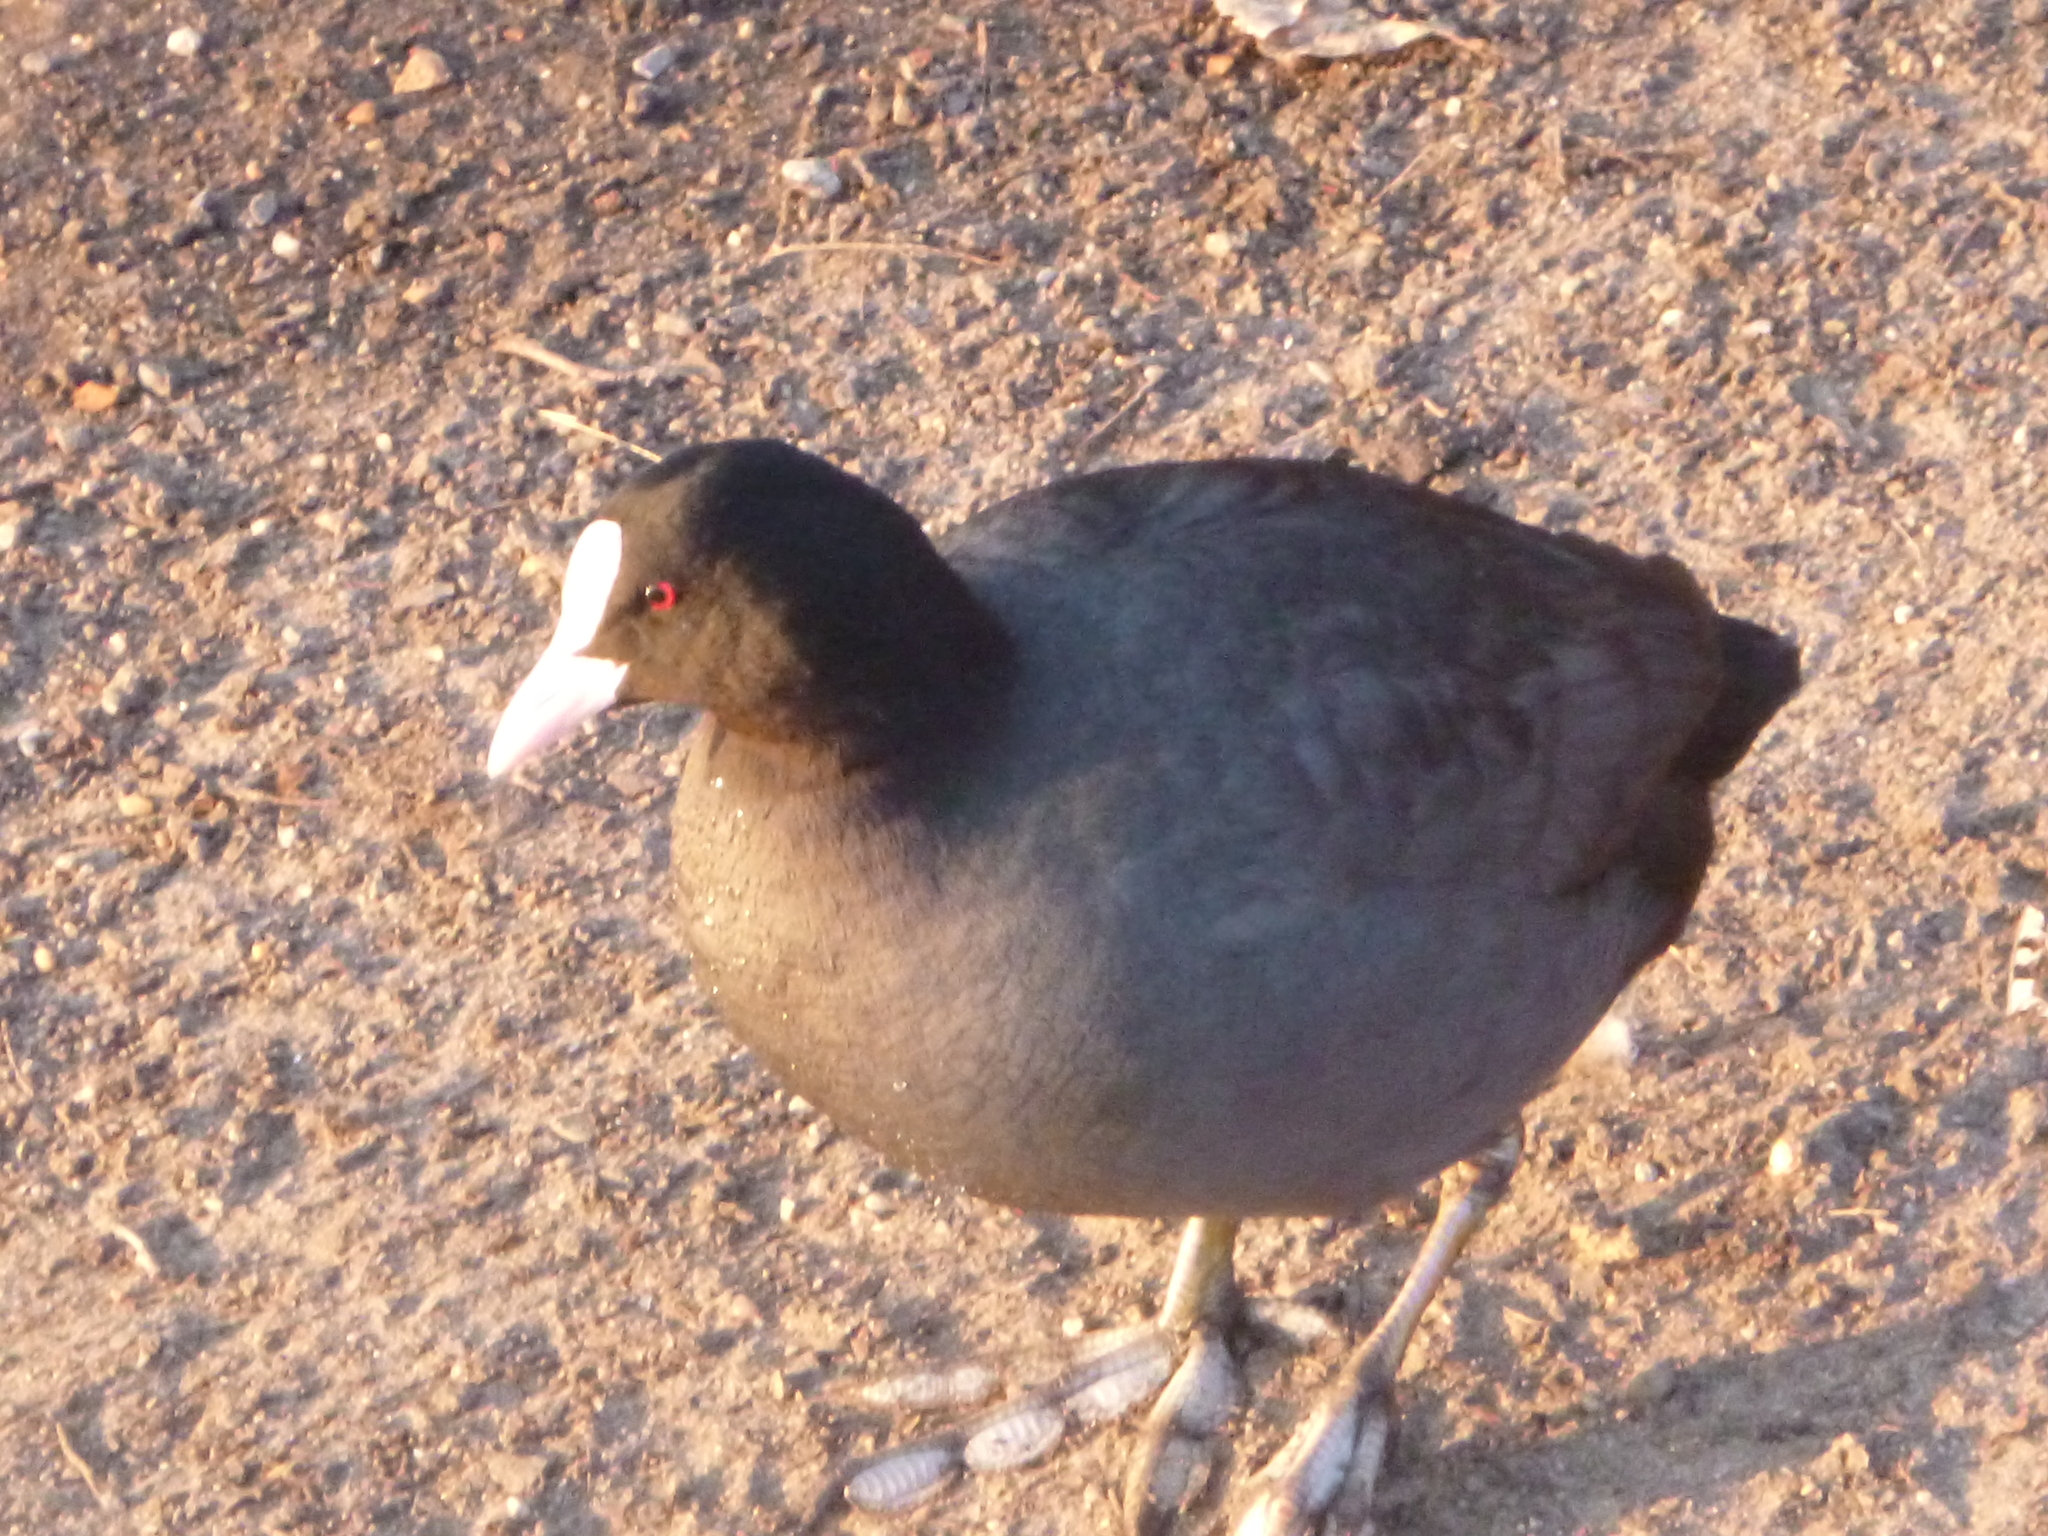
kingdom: Animalia
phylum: Chordata
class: Aves
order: Gruiformes
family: Rallidae
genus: Fulica
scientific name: Fulica atra
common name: Eurasian coot
